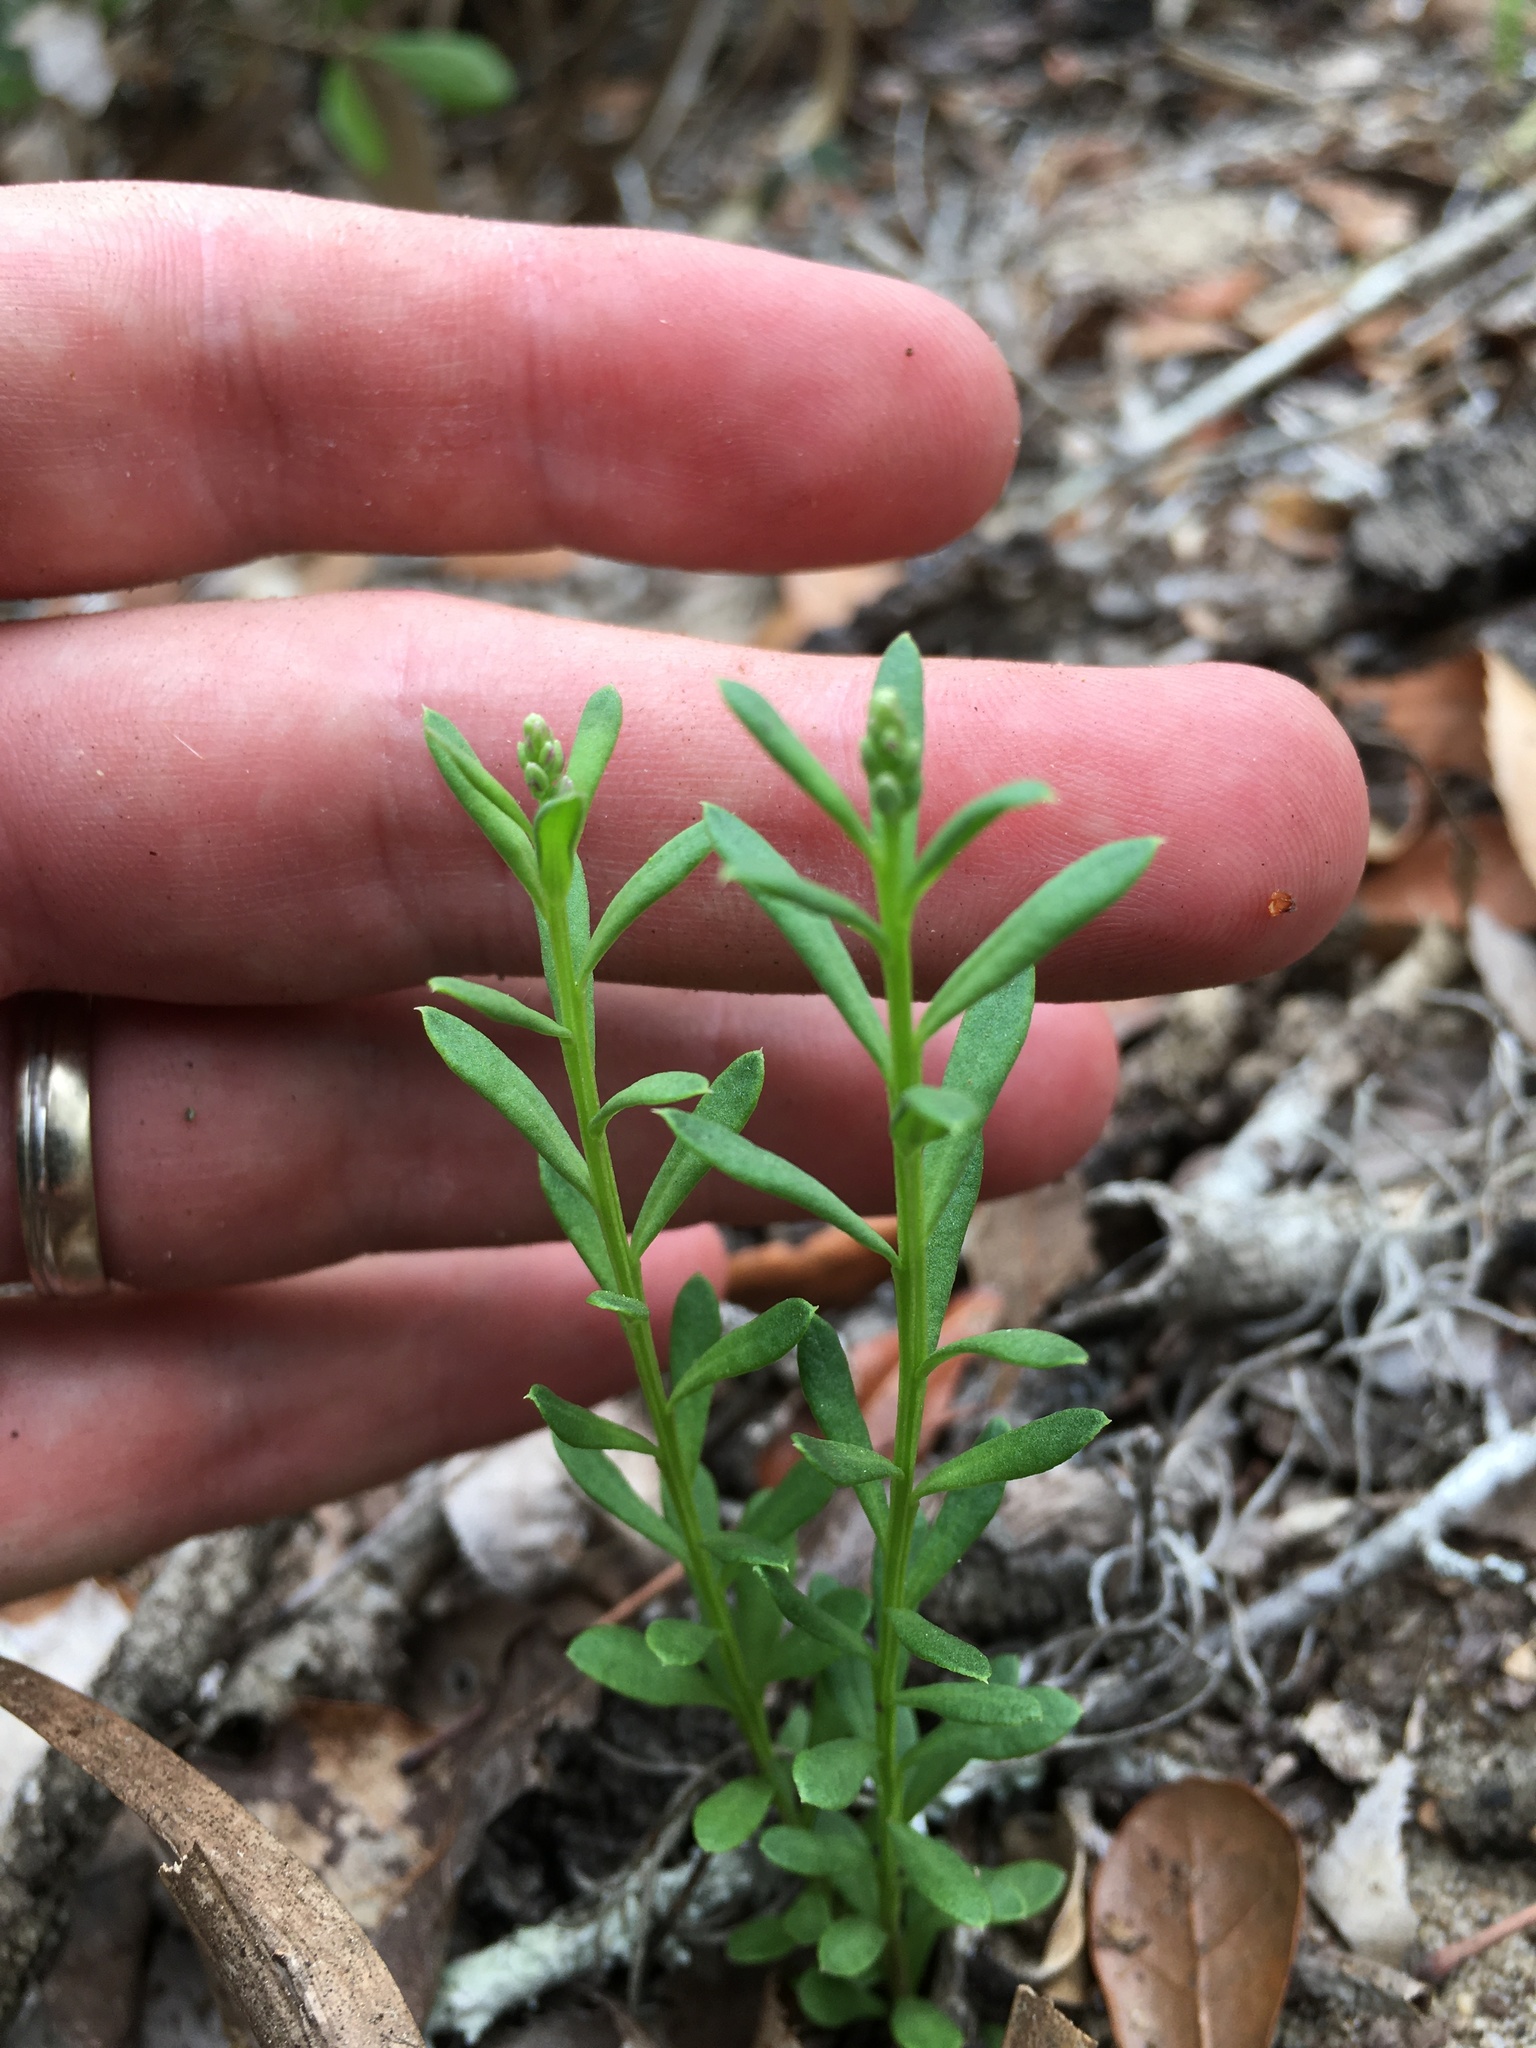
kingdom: Plantae
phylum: Tracheophyta
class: Magnoliopsida
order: Fabales
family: Polygalaceae
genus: Polygala
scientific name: Polygala polygama
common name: Bitter milkwort
